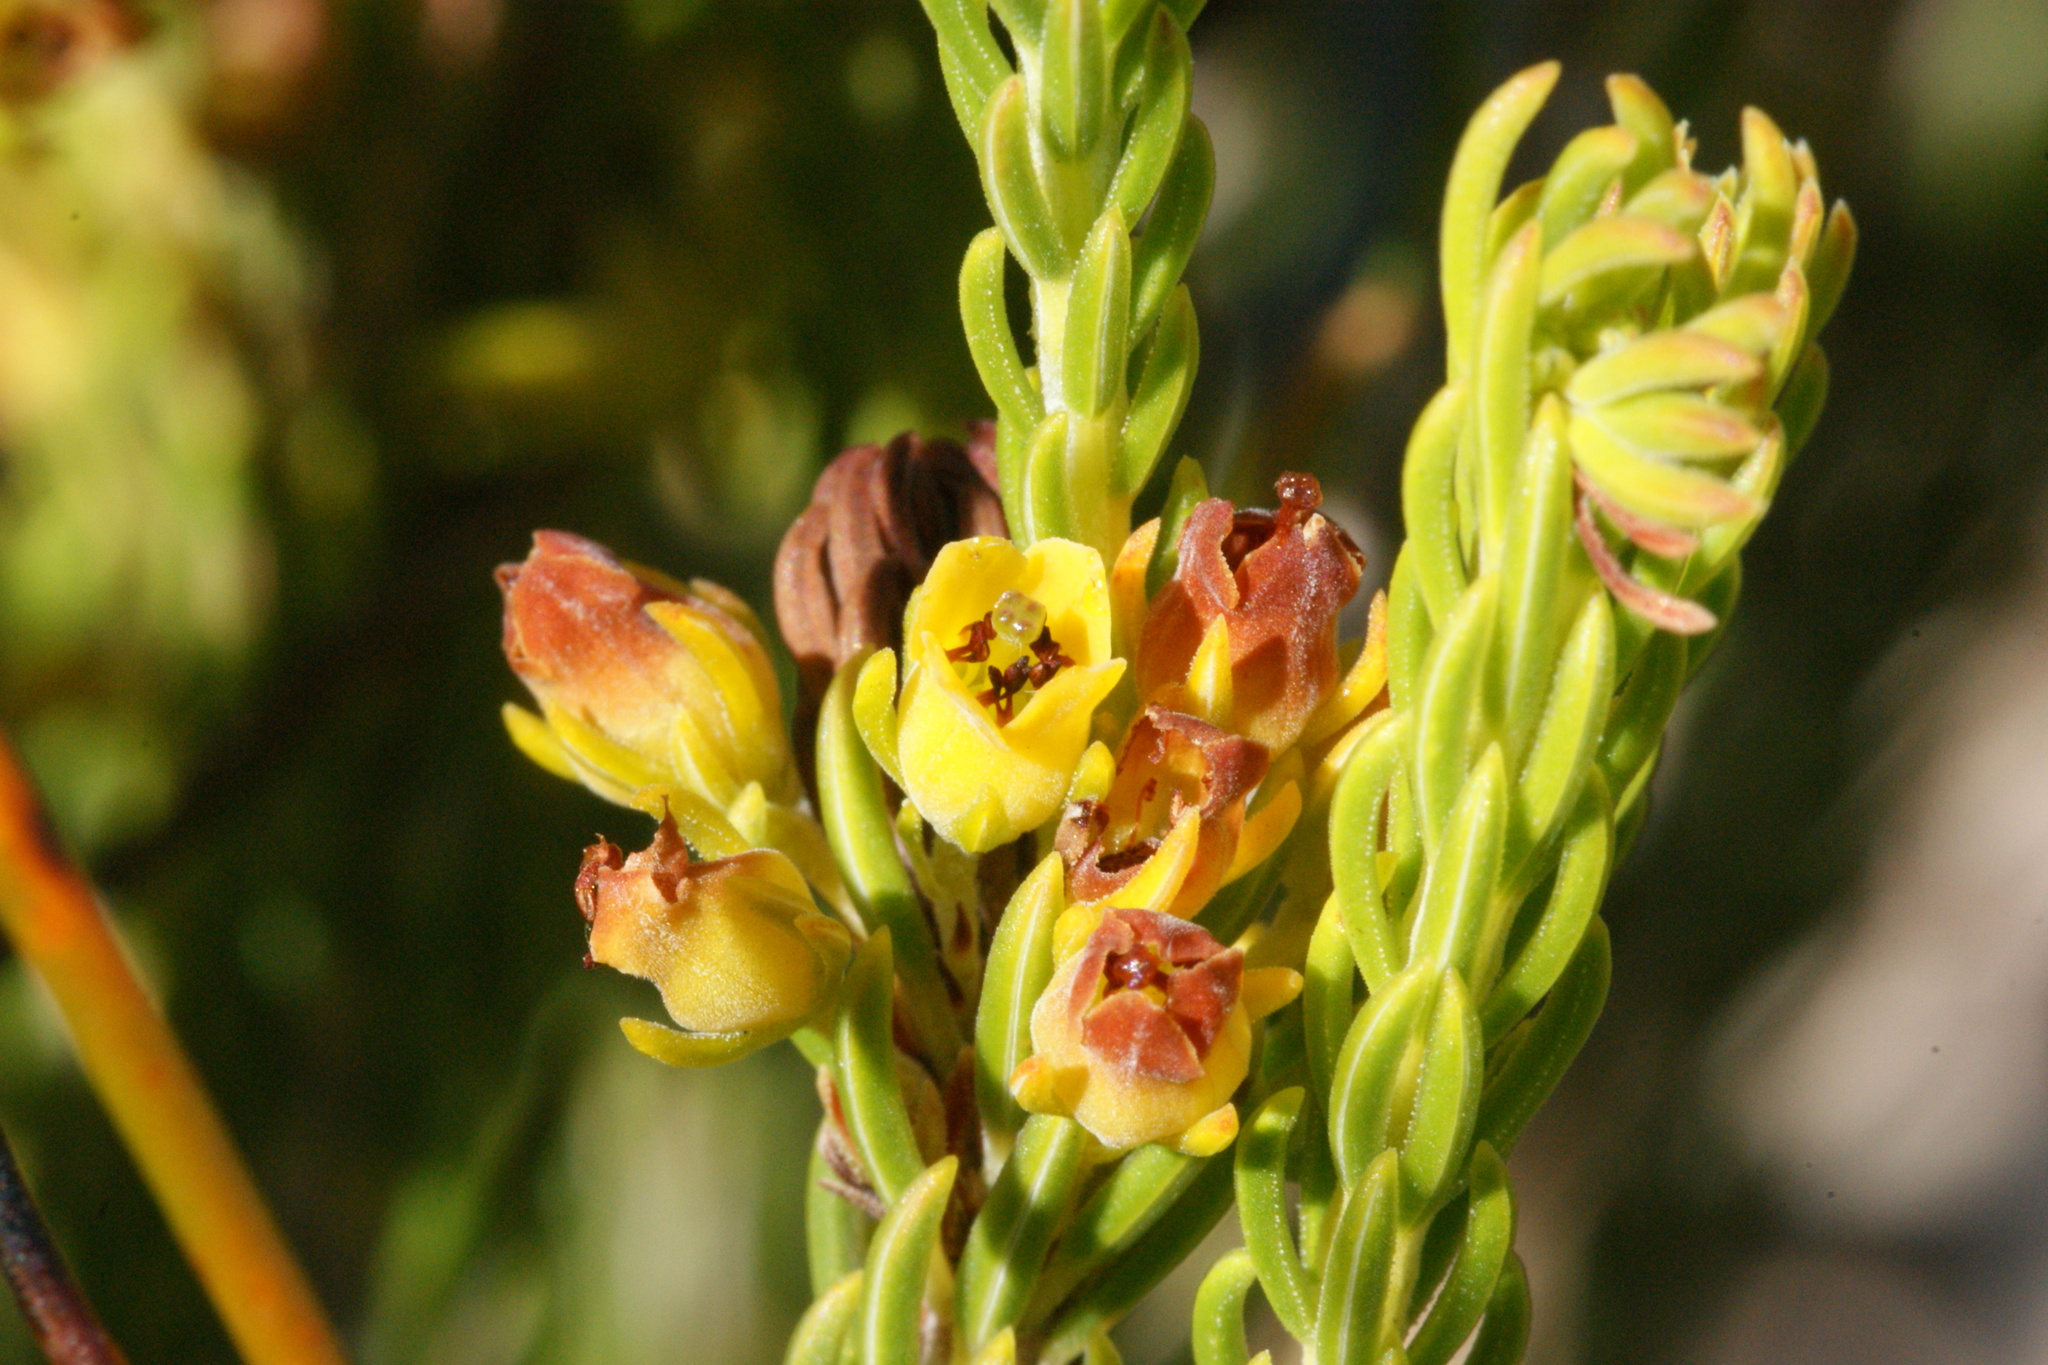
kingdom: Plantae
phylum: Tracheophyta
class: Magnoliopsida
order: Ericales
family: Ericaceae
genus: Erica
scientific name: Erica parilis
